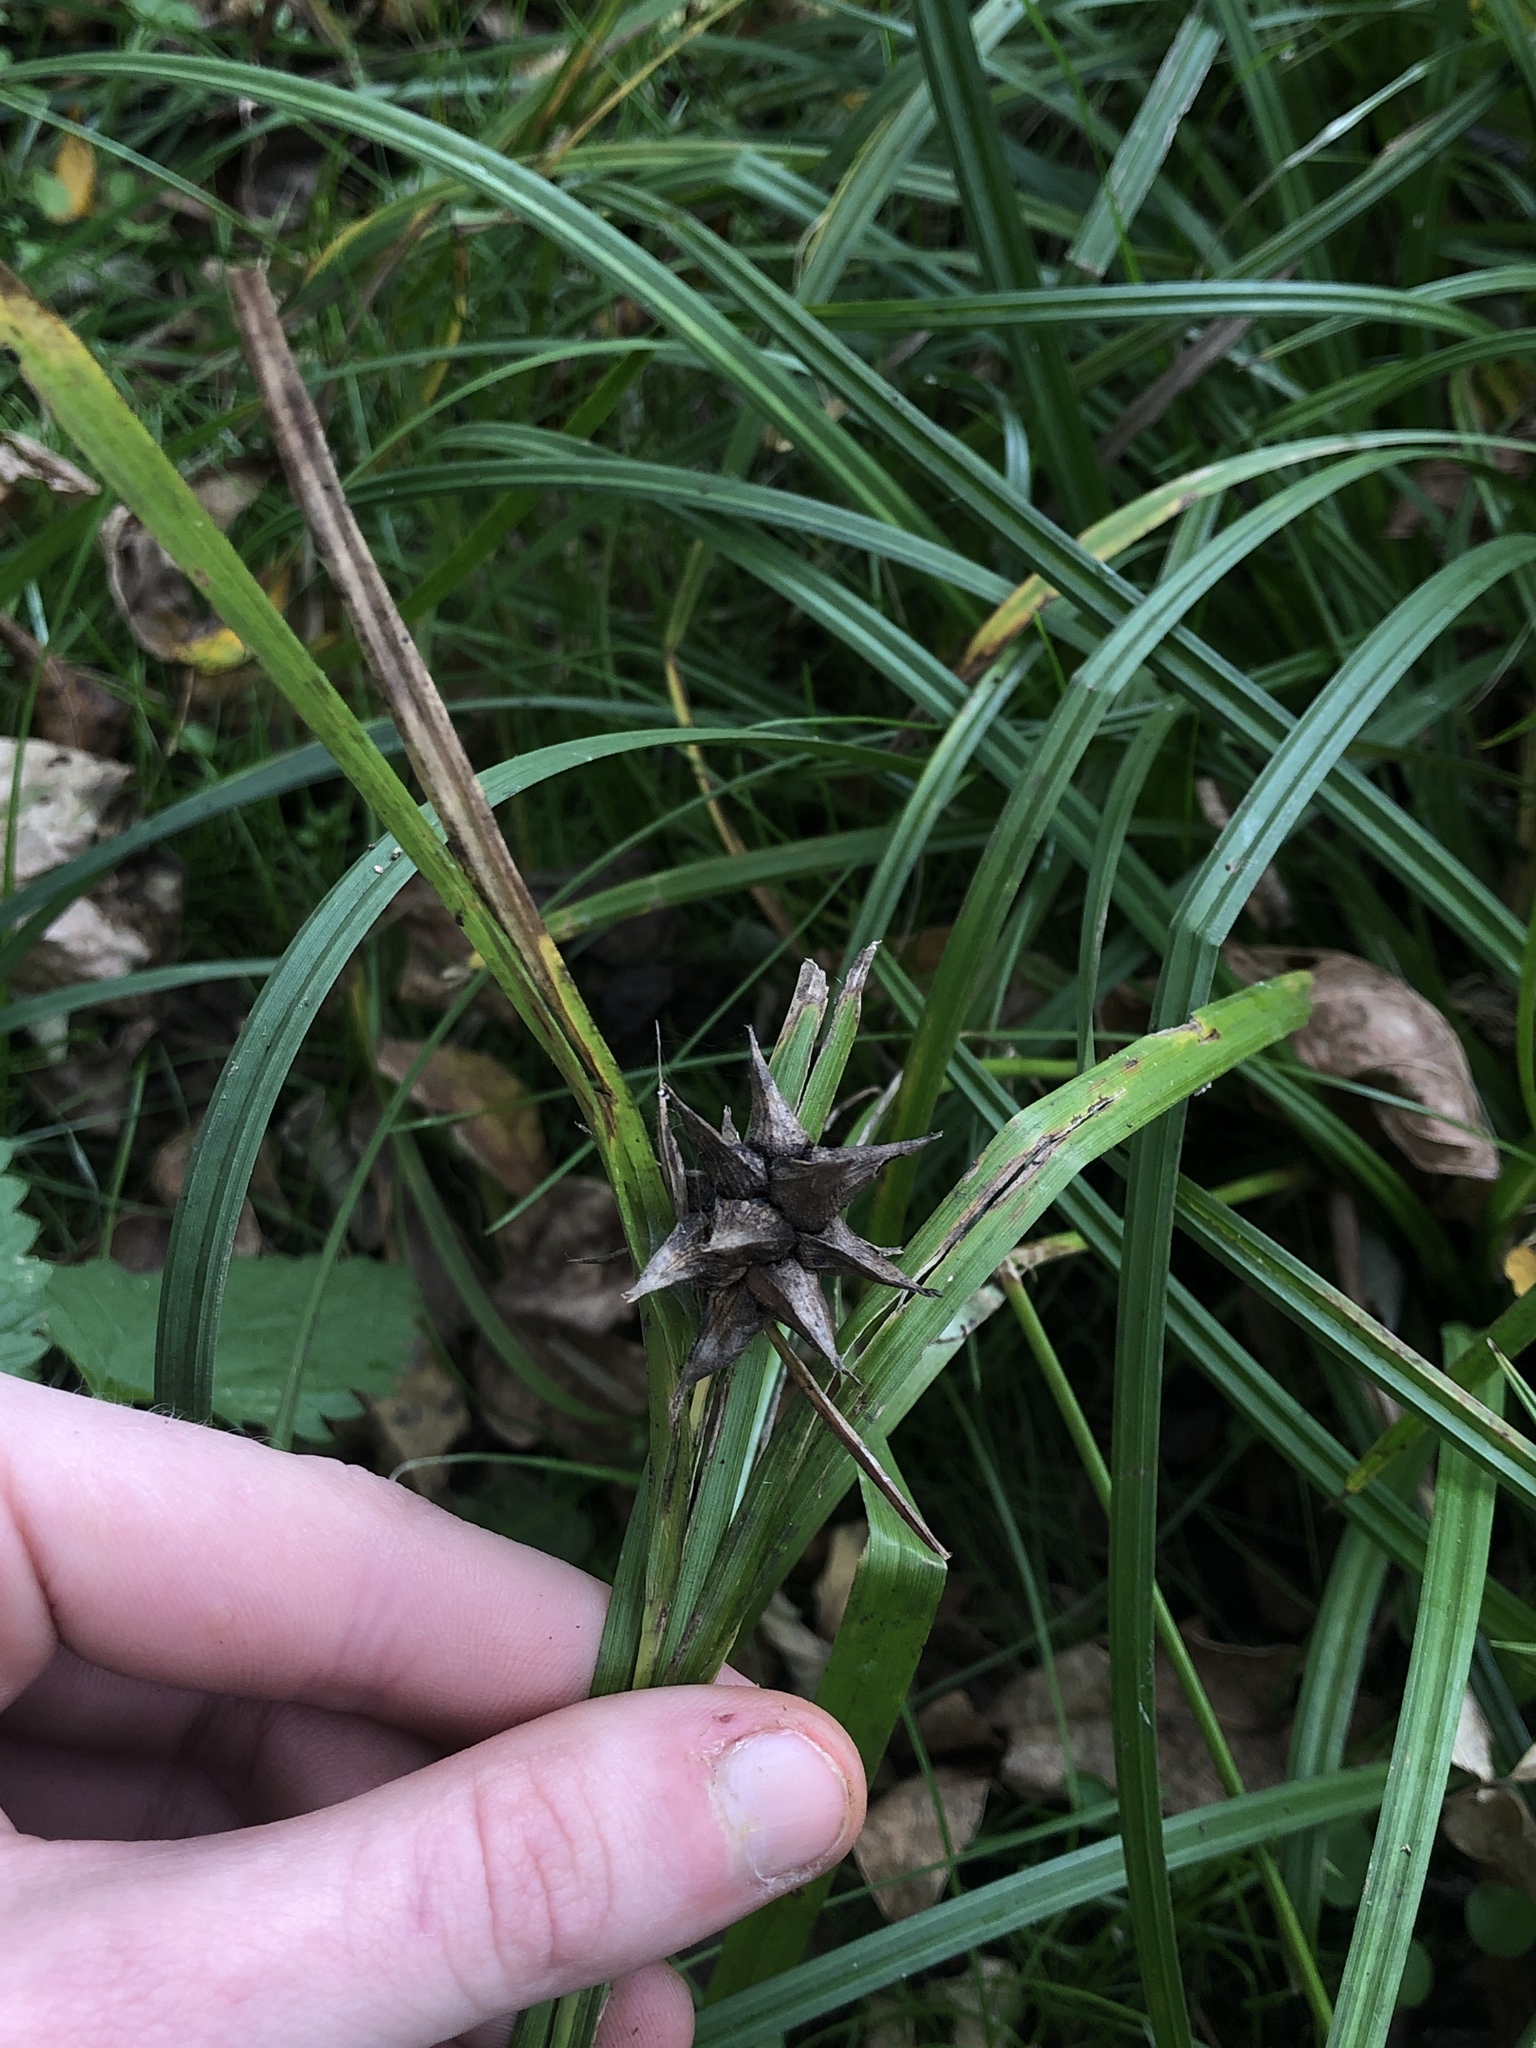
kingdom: Plantae
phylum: Tracheophyta
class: Liliopsida
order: Poales
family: Cyperaceae
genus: Carex
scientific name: Carex grayi
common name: Asa gray's sedge
